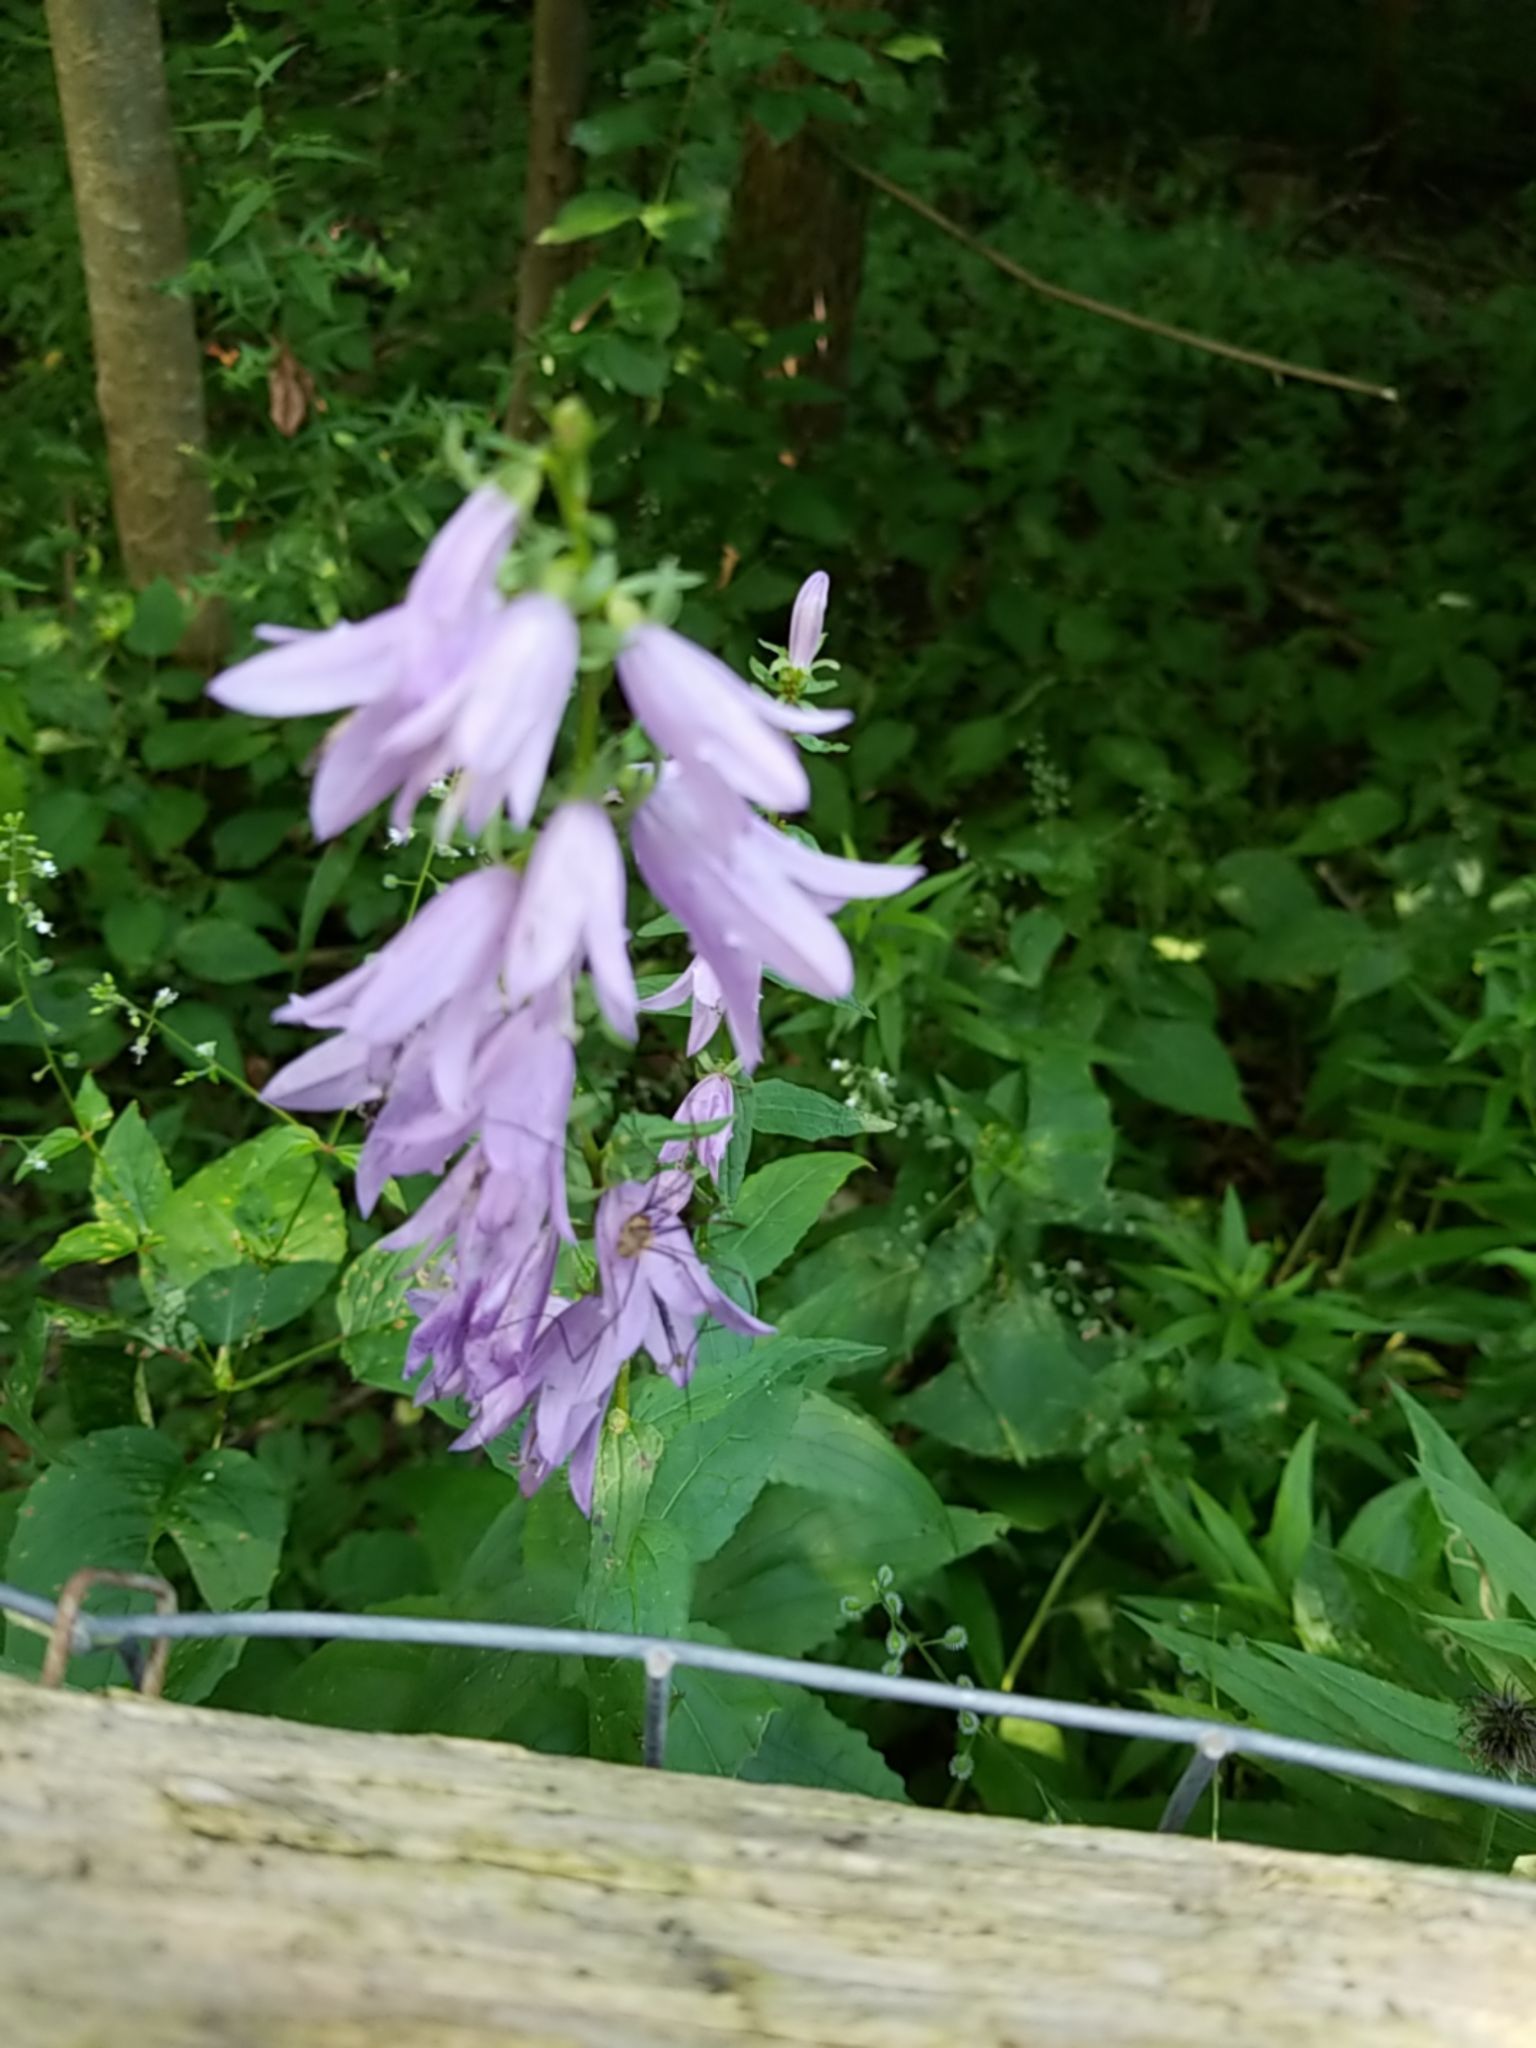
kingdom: Plantae
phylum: Tracheophyta
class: Magnoliopsida
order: Asterales
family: Campanulaceae
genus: Campanula
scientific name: Campanula rapunculoides
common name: Creeping bellflower
